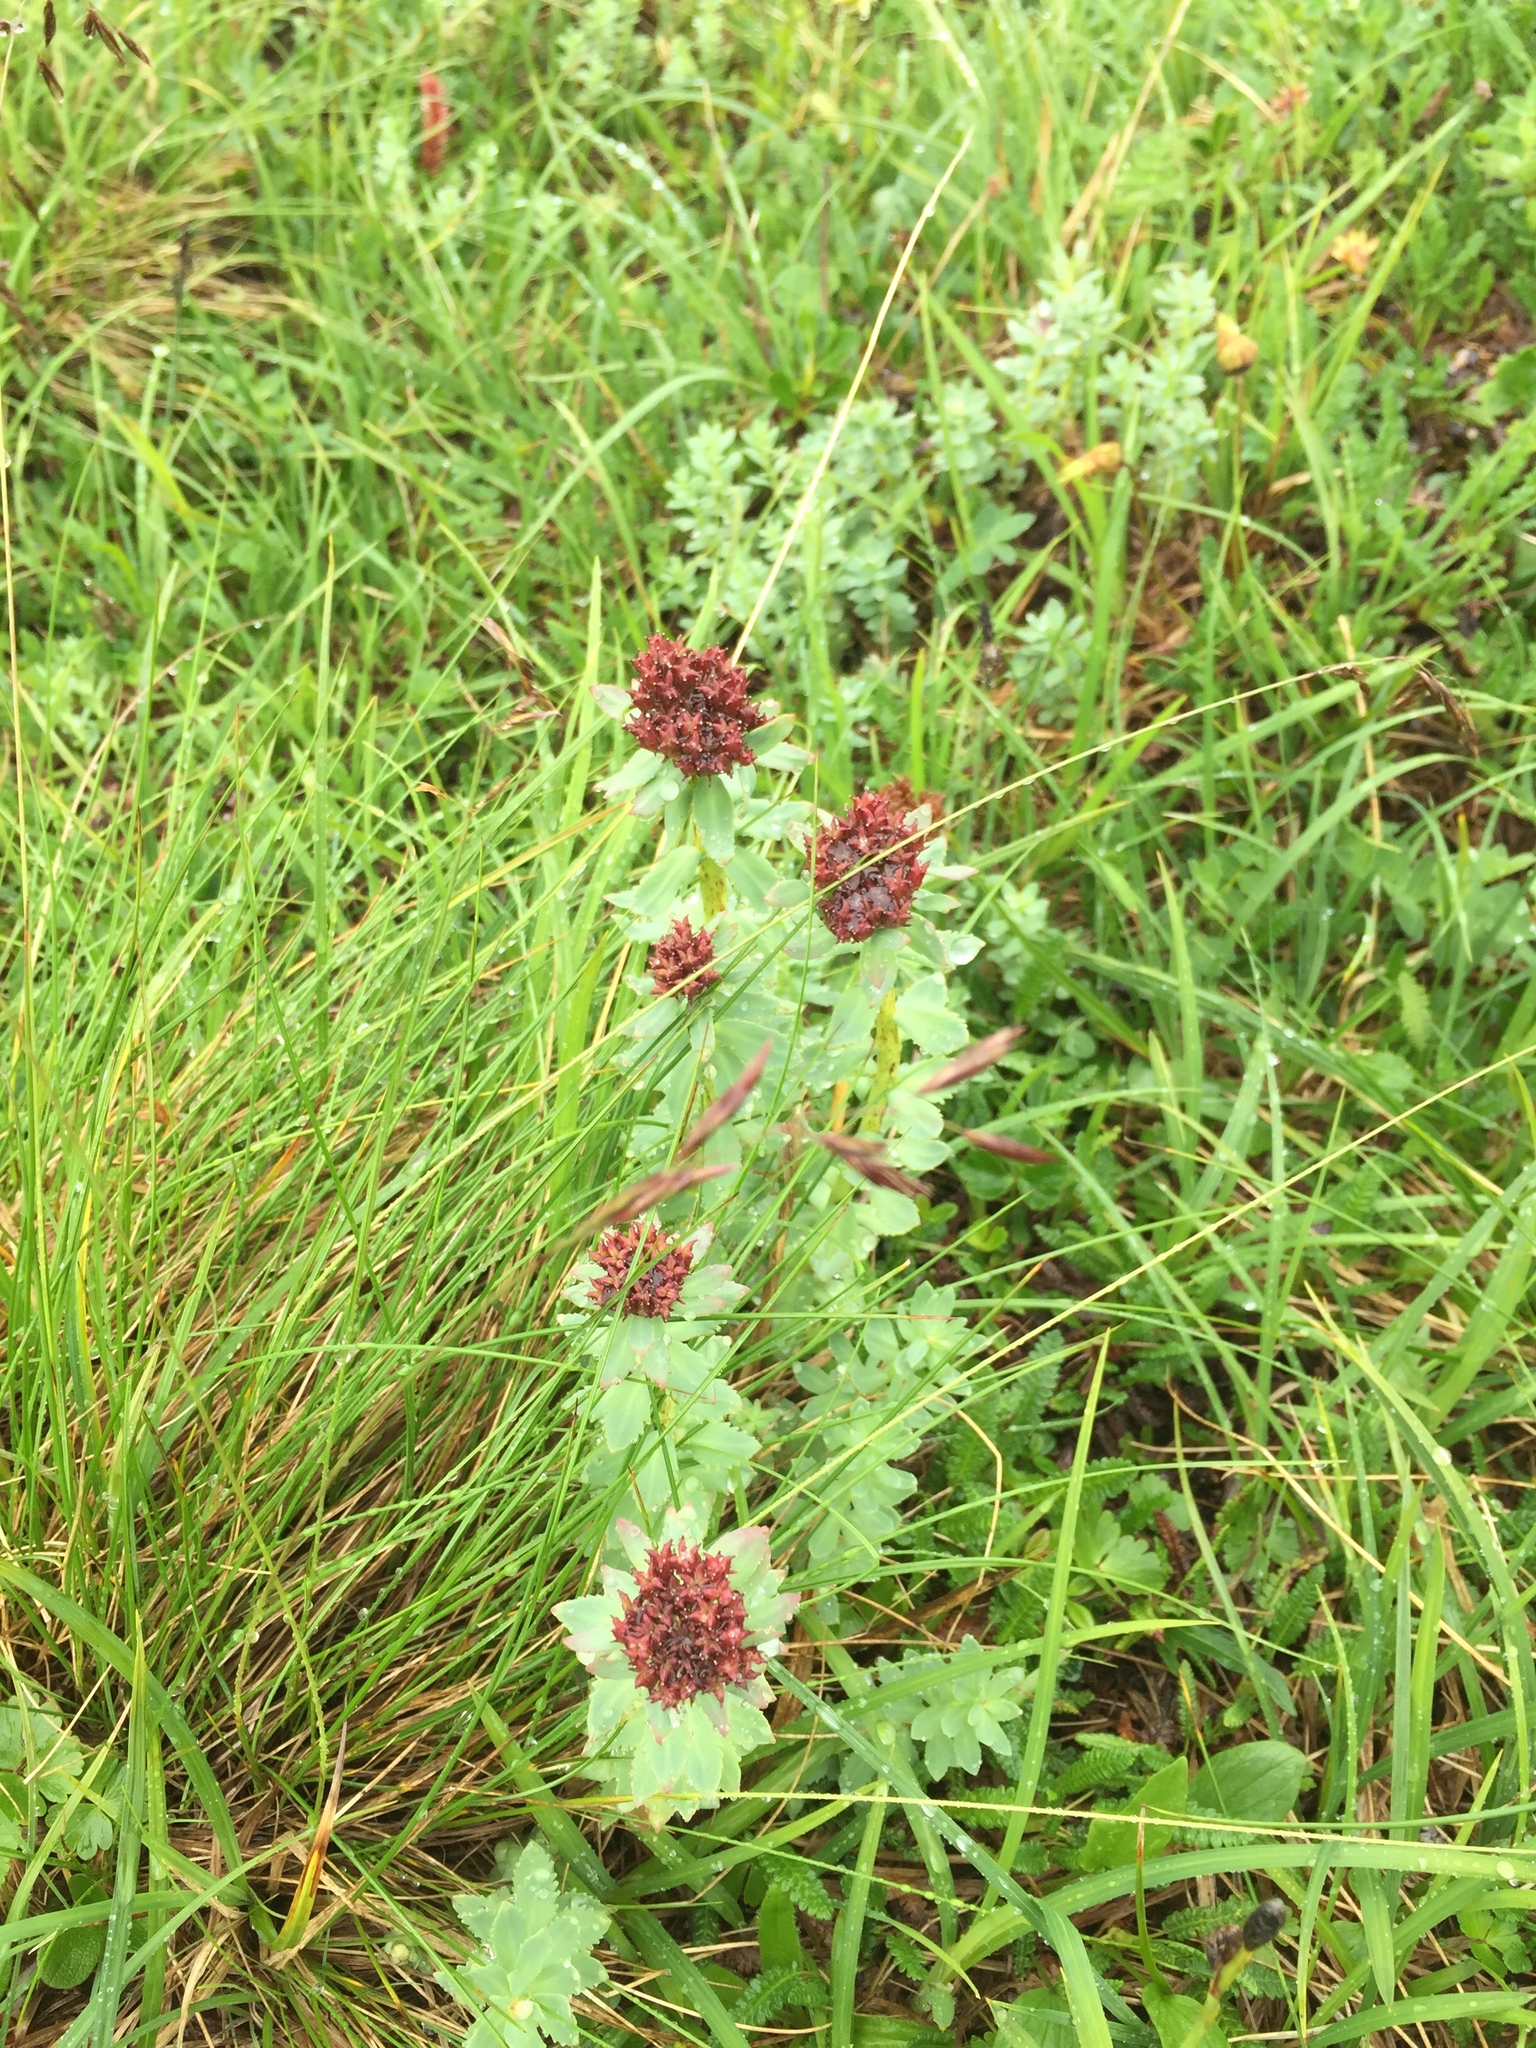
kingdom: Plantae
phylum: Tracheophyta
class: Magnoliopsida
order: Saxifragales
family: Crassulaceae
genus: Rhodiola
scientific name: Rhodiola integrifolia
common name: Western roseroot
